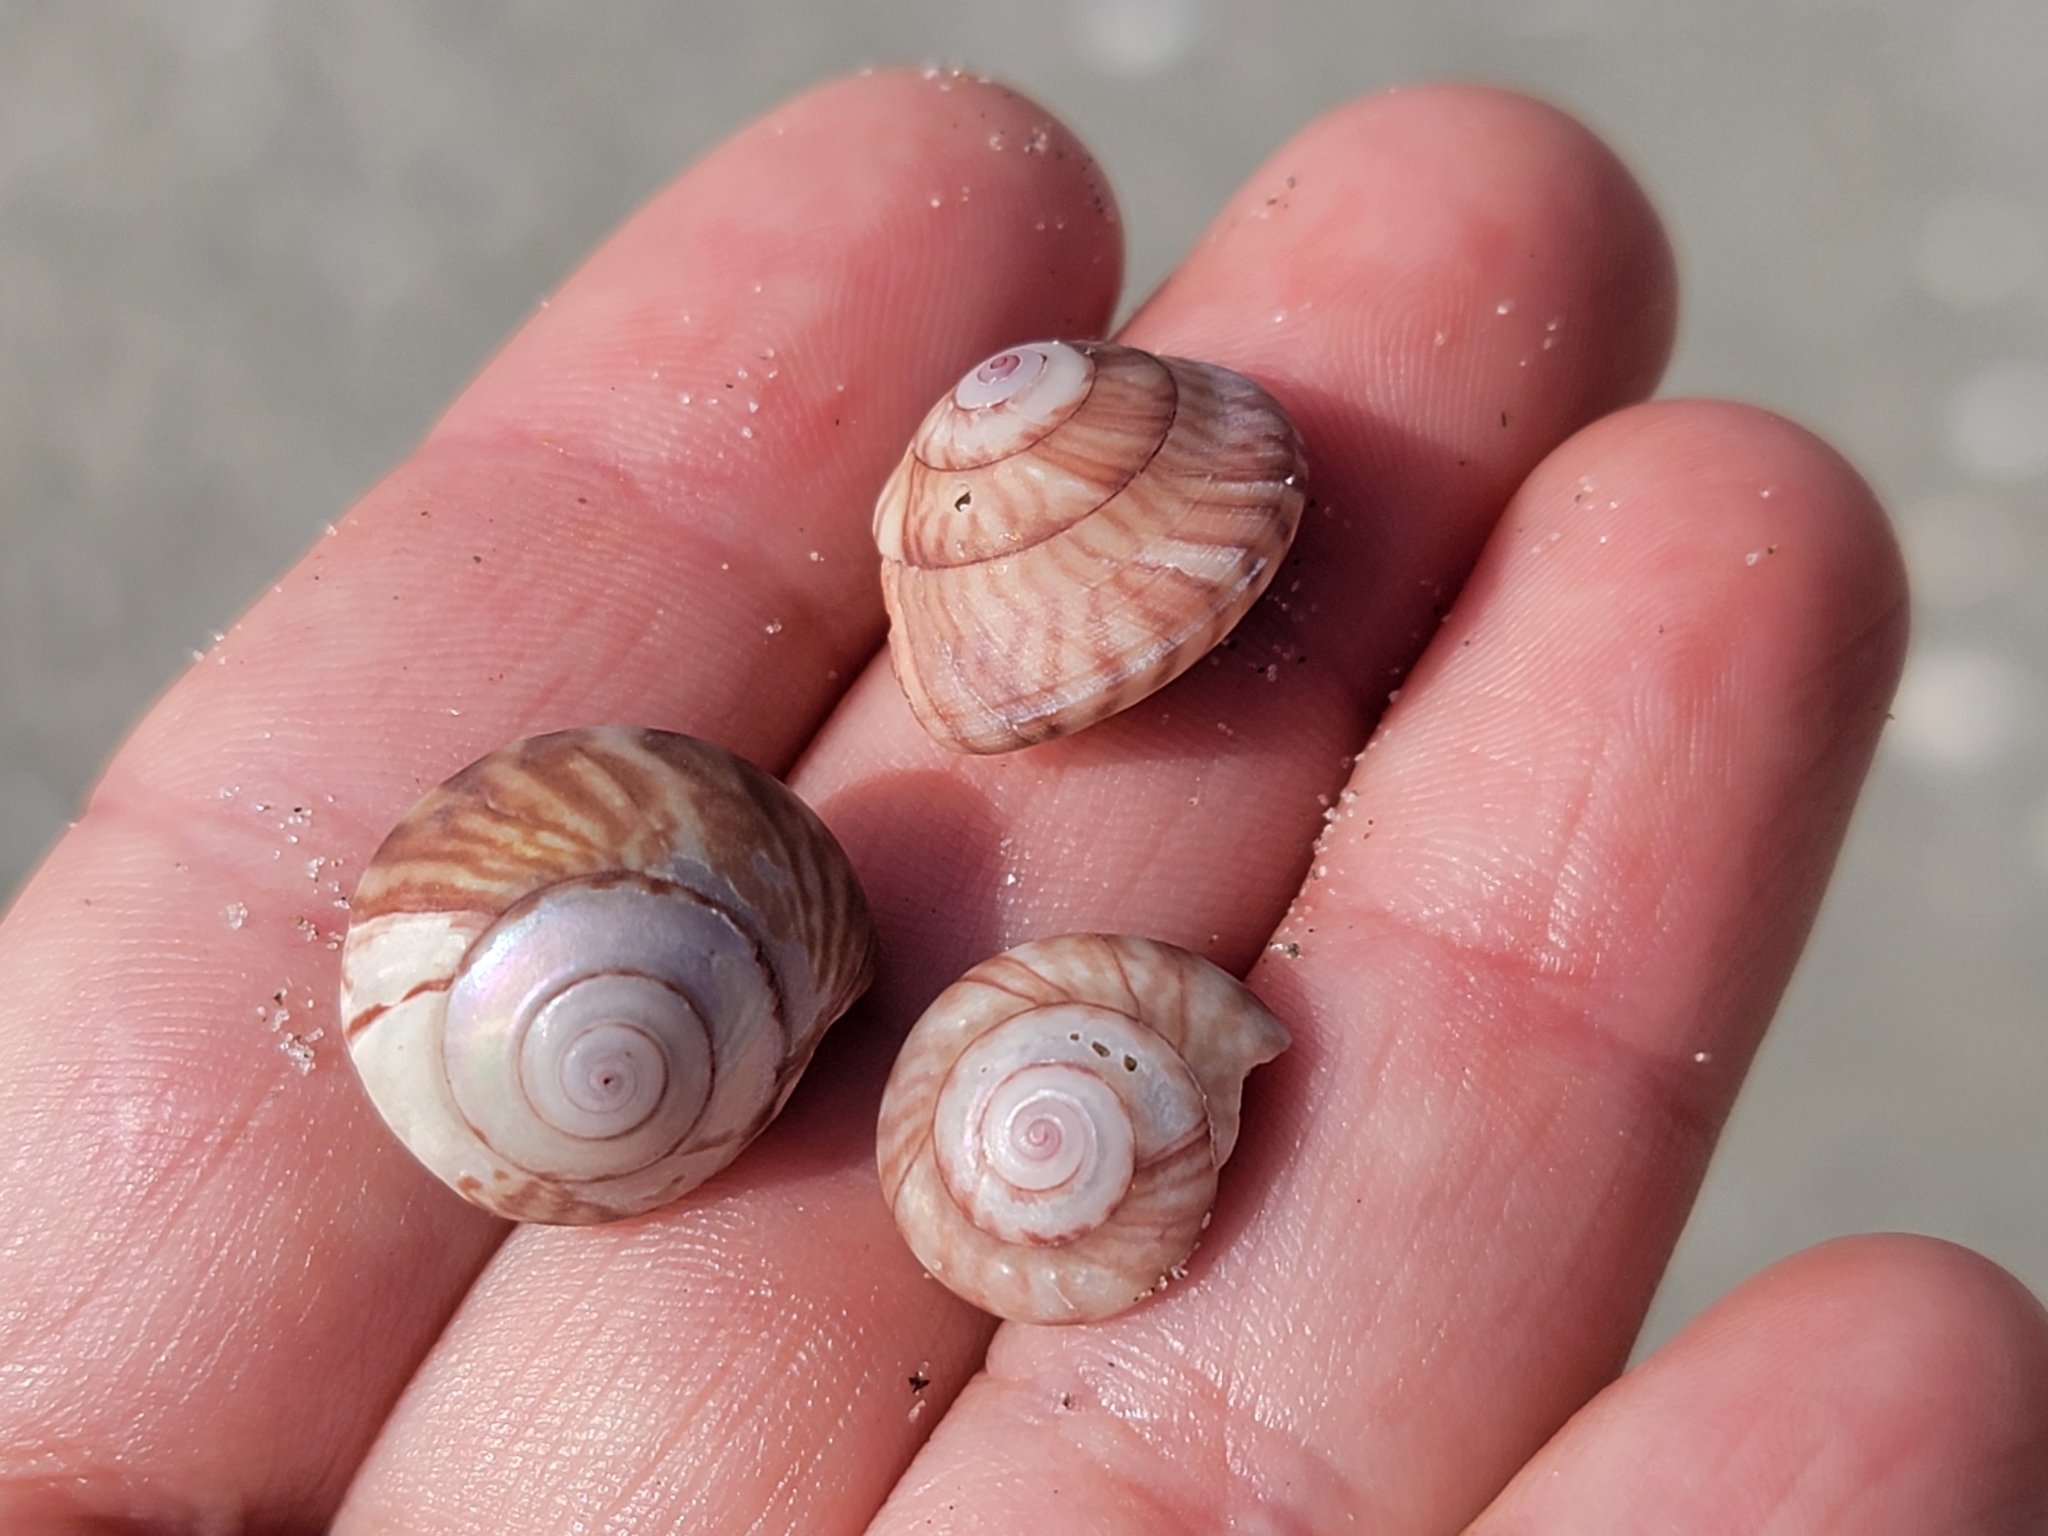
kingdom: Animalia
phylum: Mollusca
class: Gastropoda
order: Trochida
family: Trochidae
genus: Zethalia
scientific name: Zethalia zelandica
